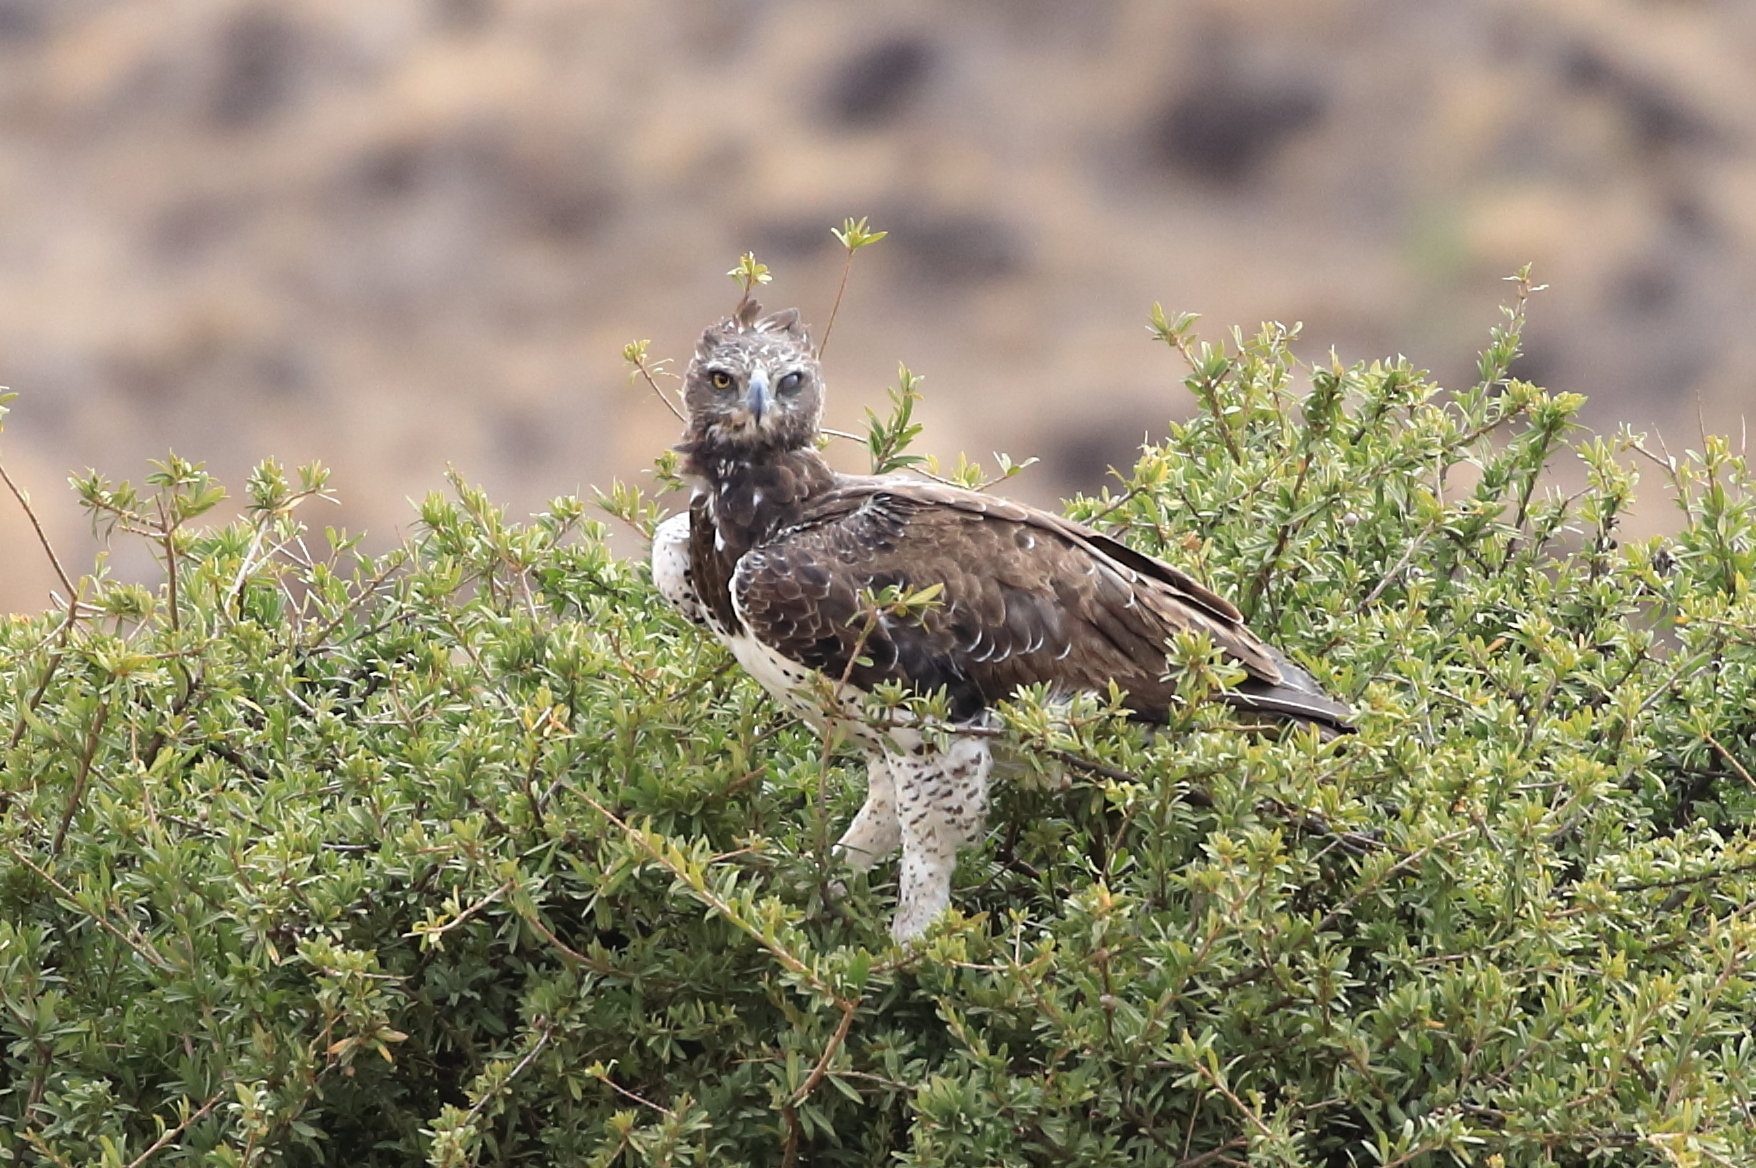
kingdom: Animalia
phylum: Chordata
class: Aves
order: Accipitriformes
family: Accipitridae
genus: Polemaetus
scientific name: Polemaetus bellicosus
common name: Martial eagle
